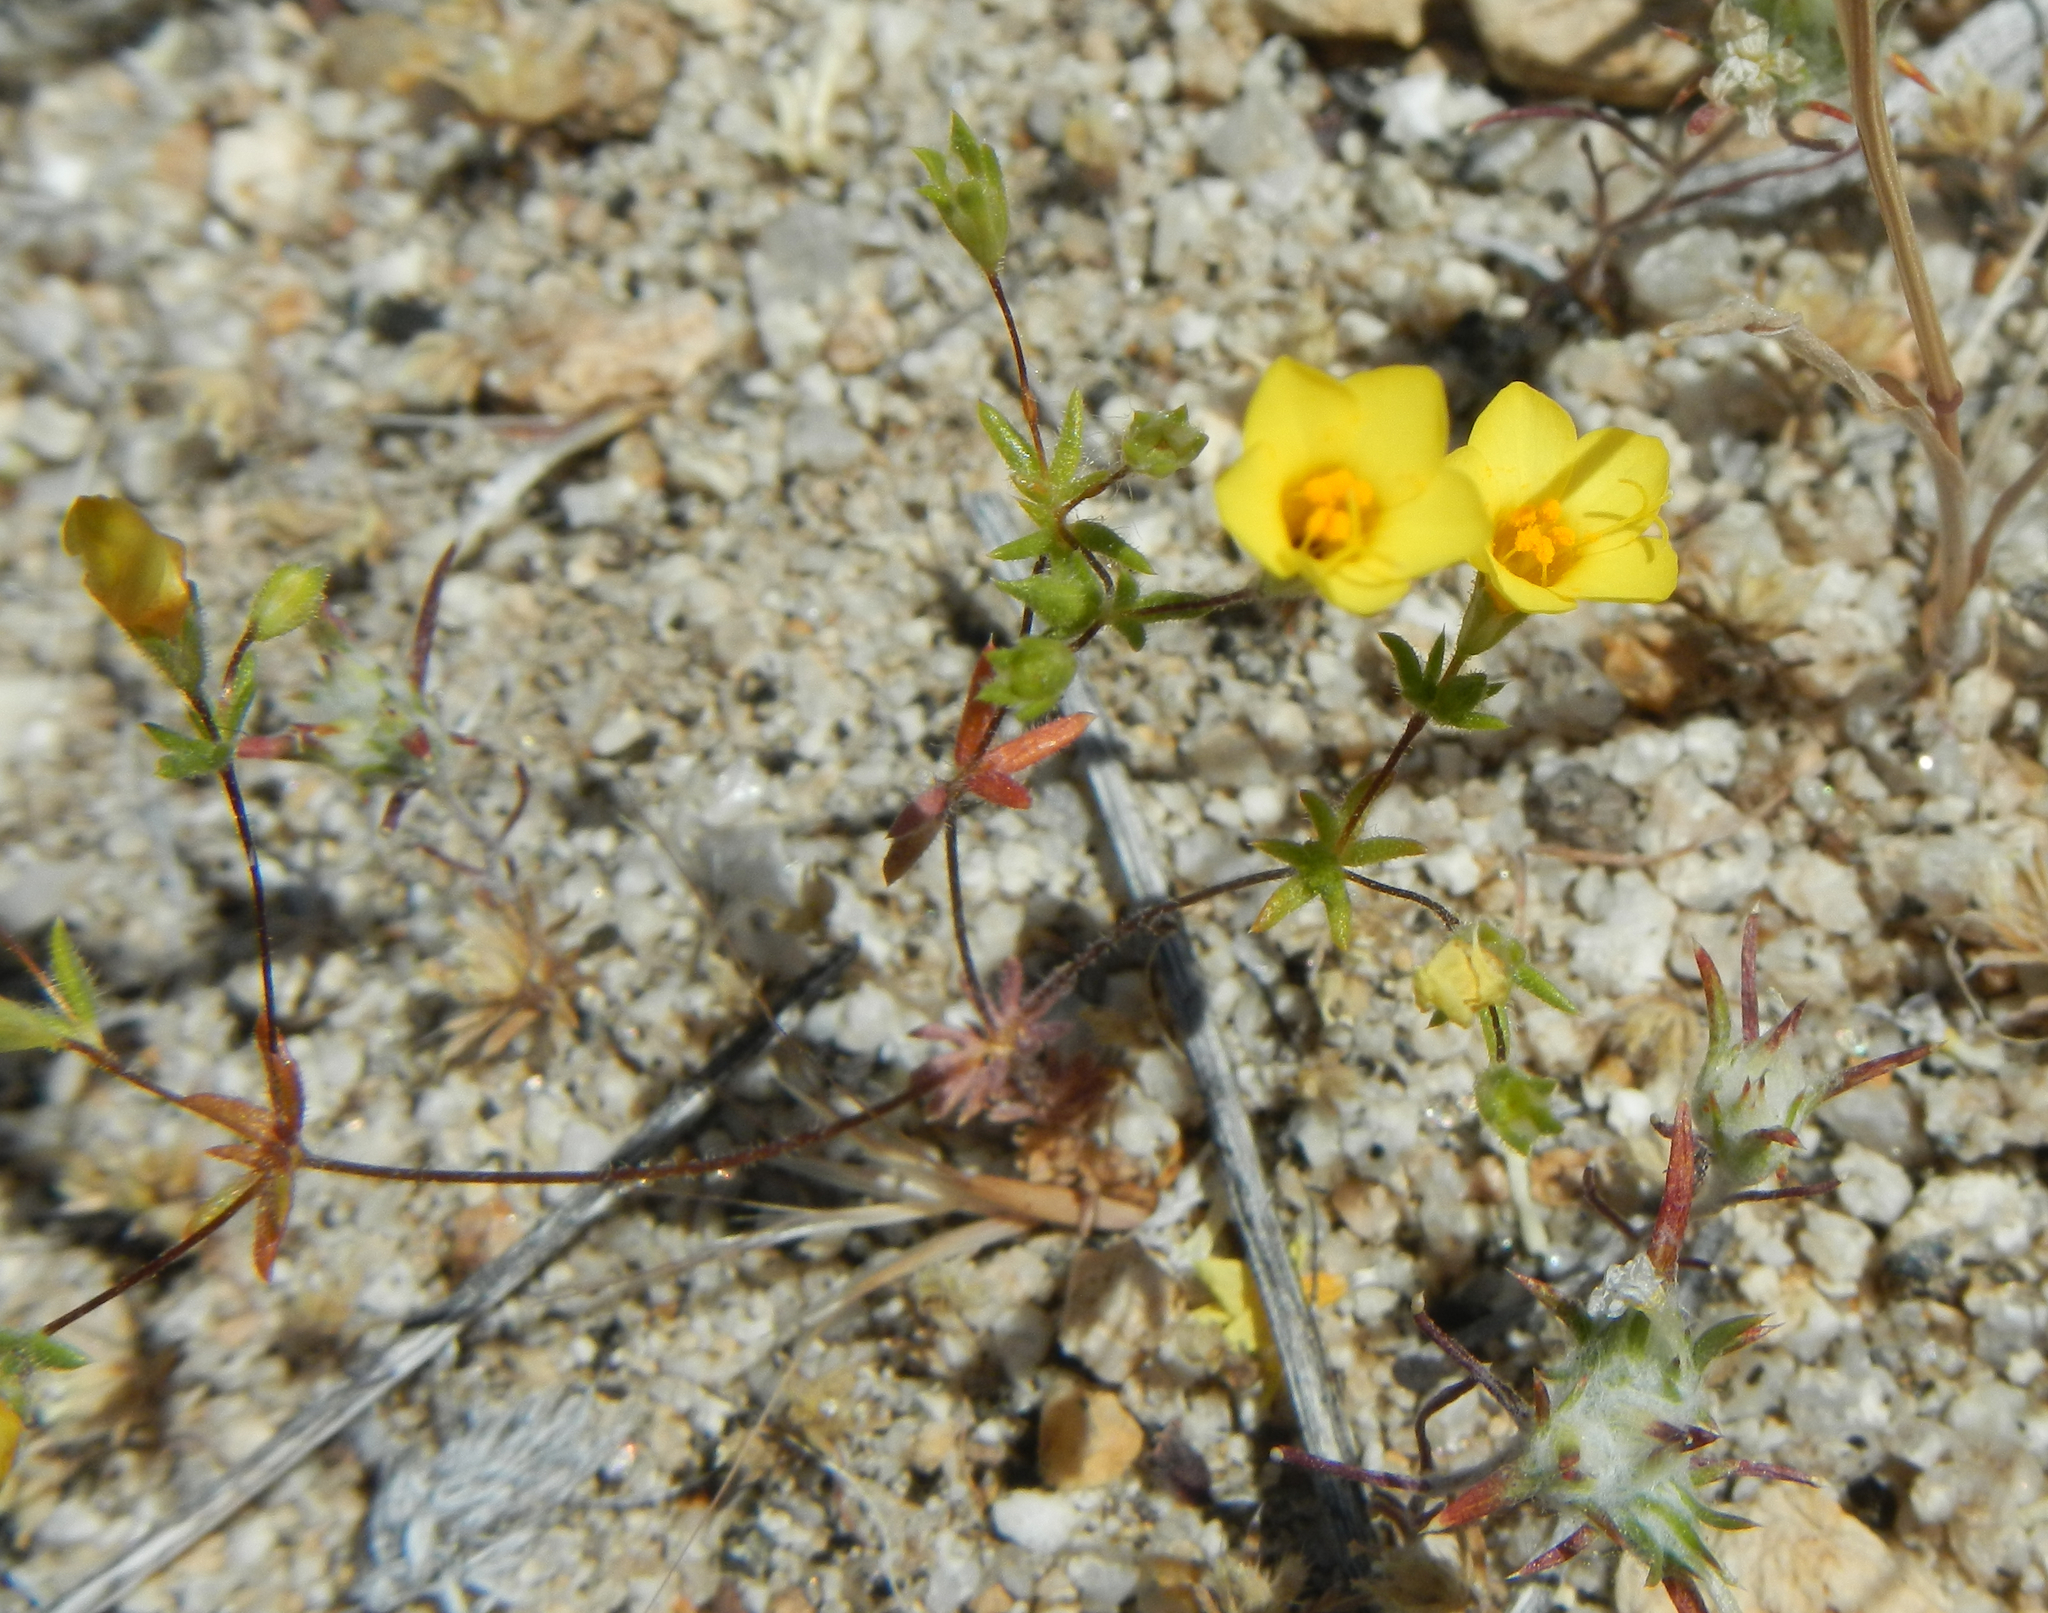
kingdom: Plantae
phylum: Tracheophyta
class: Magnoliopsida
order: Ericales
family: Polemoniaceae
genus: Leptosiphon
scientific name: Leptosiphon chrysanthus
